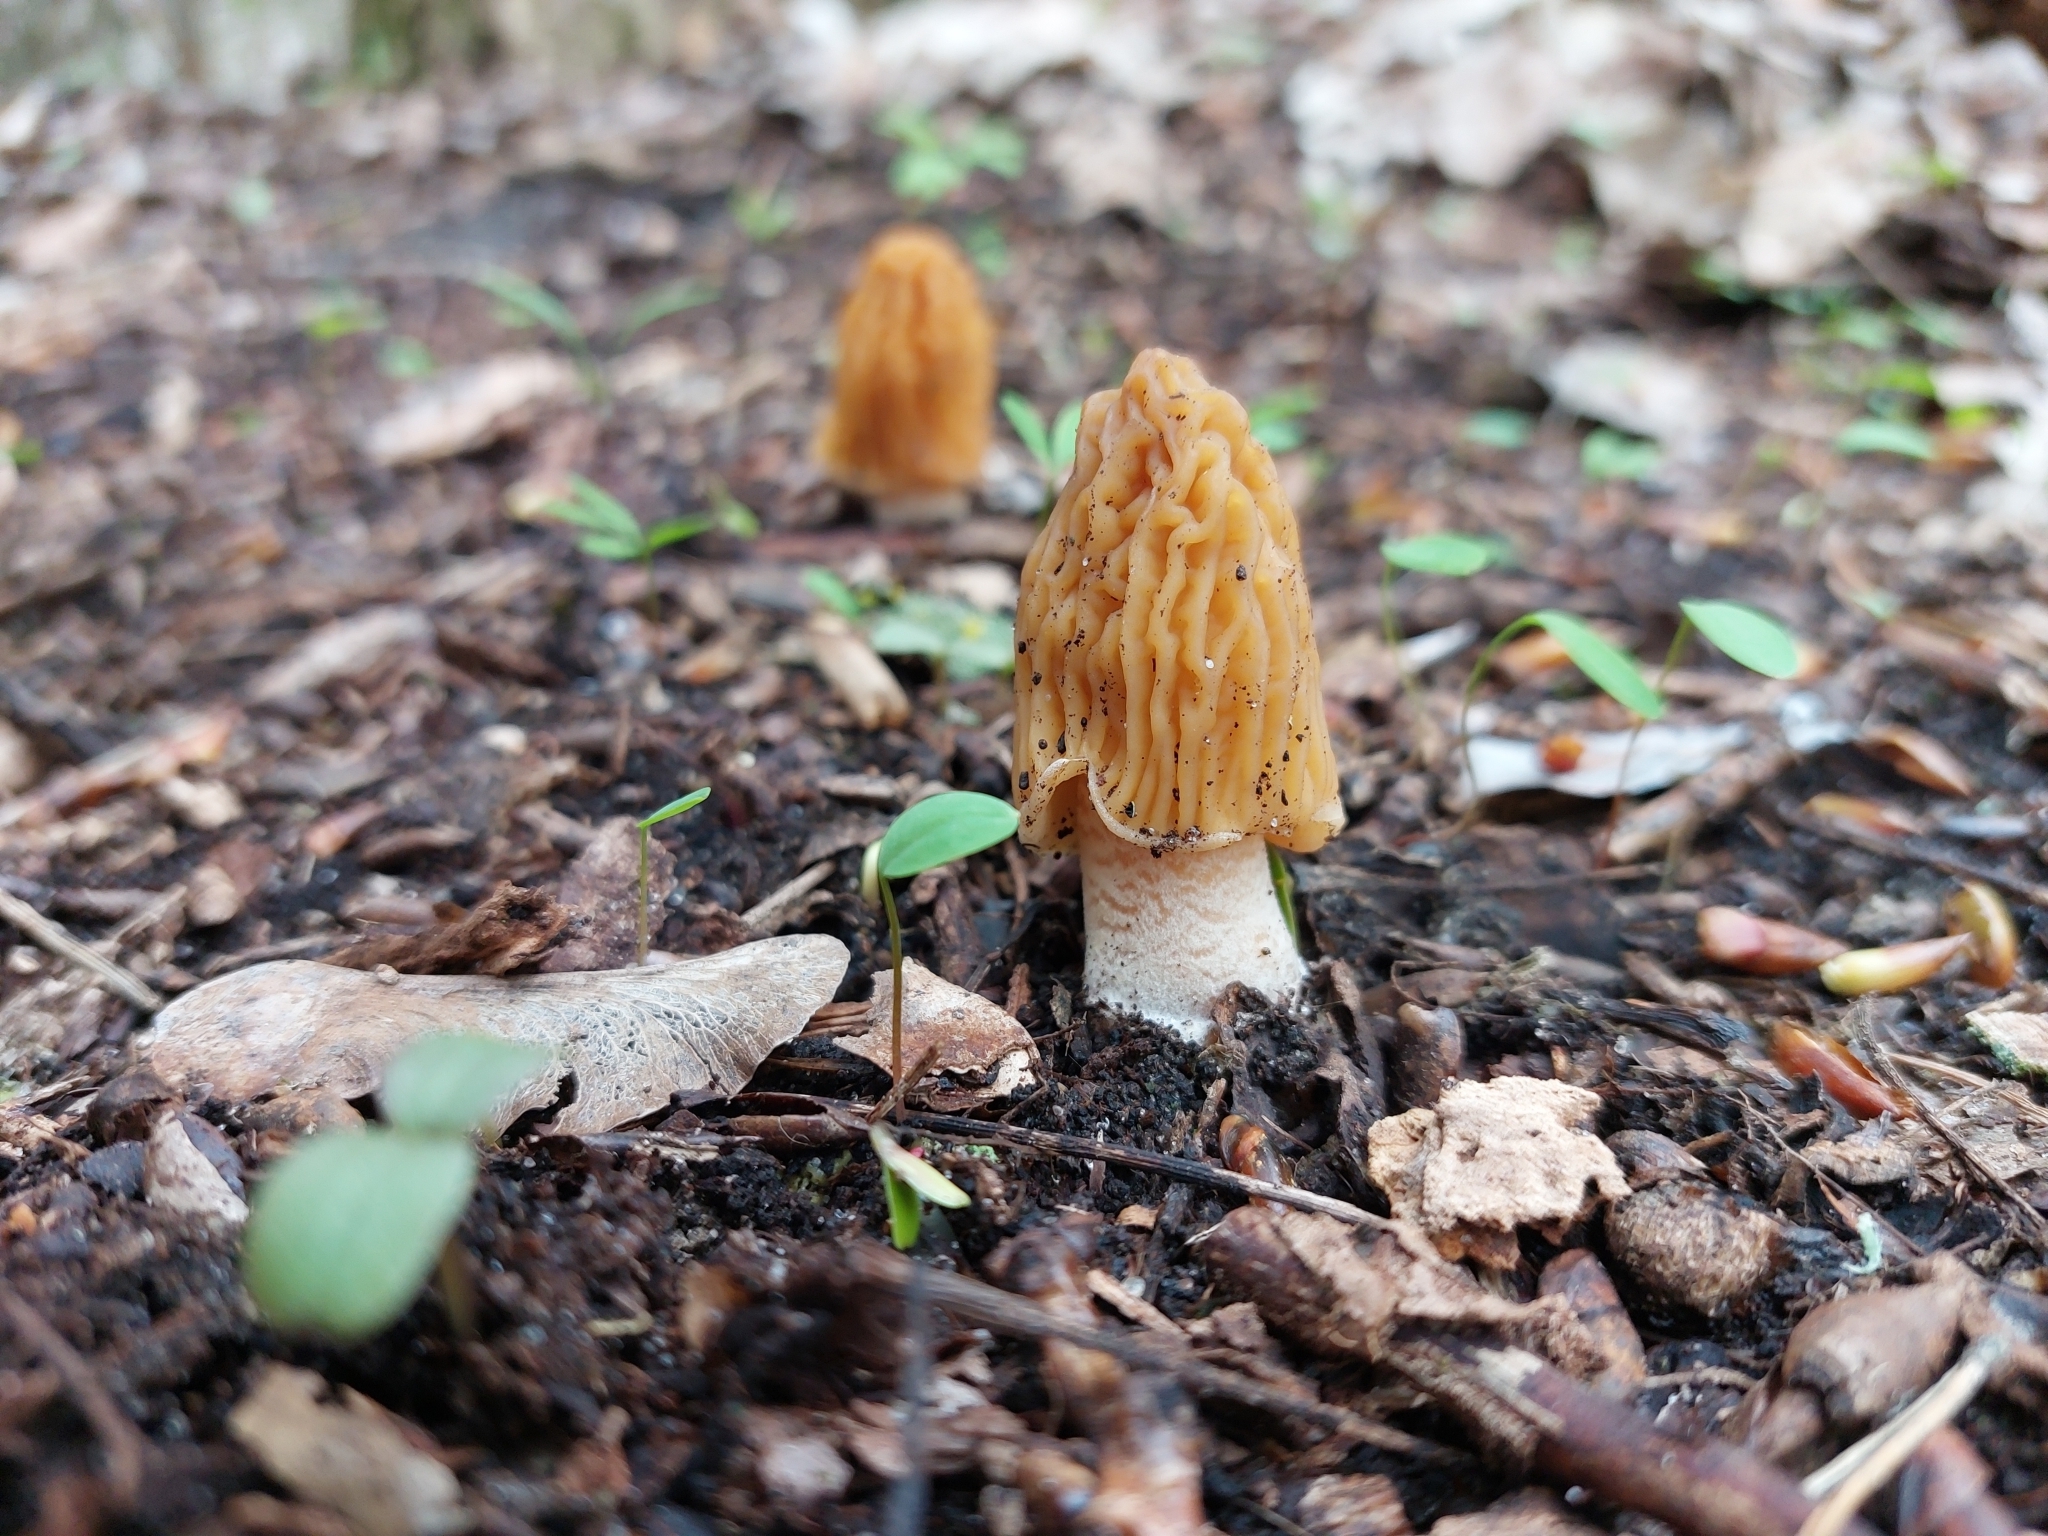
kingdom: Fungi
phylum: Ascomycota
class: Pezizomycetes
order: Pezizales
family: Morchellaceae
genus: Verpa
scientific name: Verpa bohemica
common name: Wrinkled thimble morel
